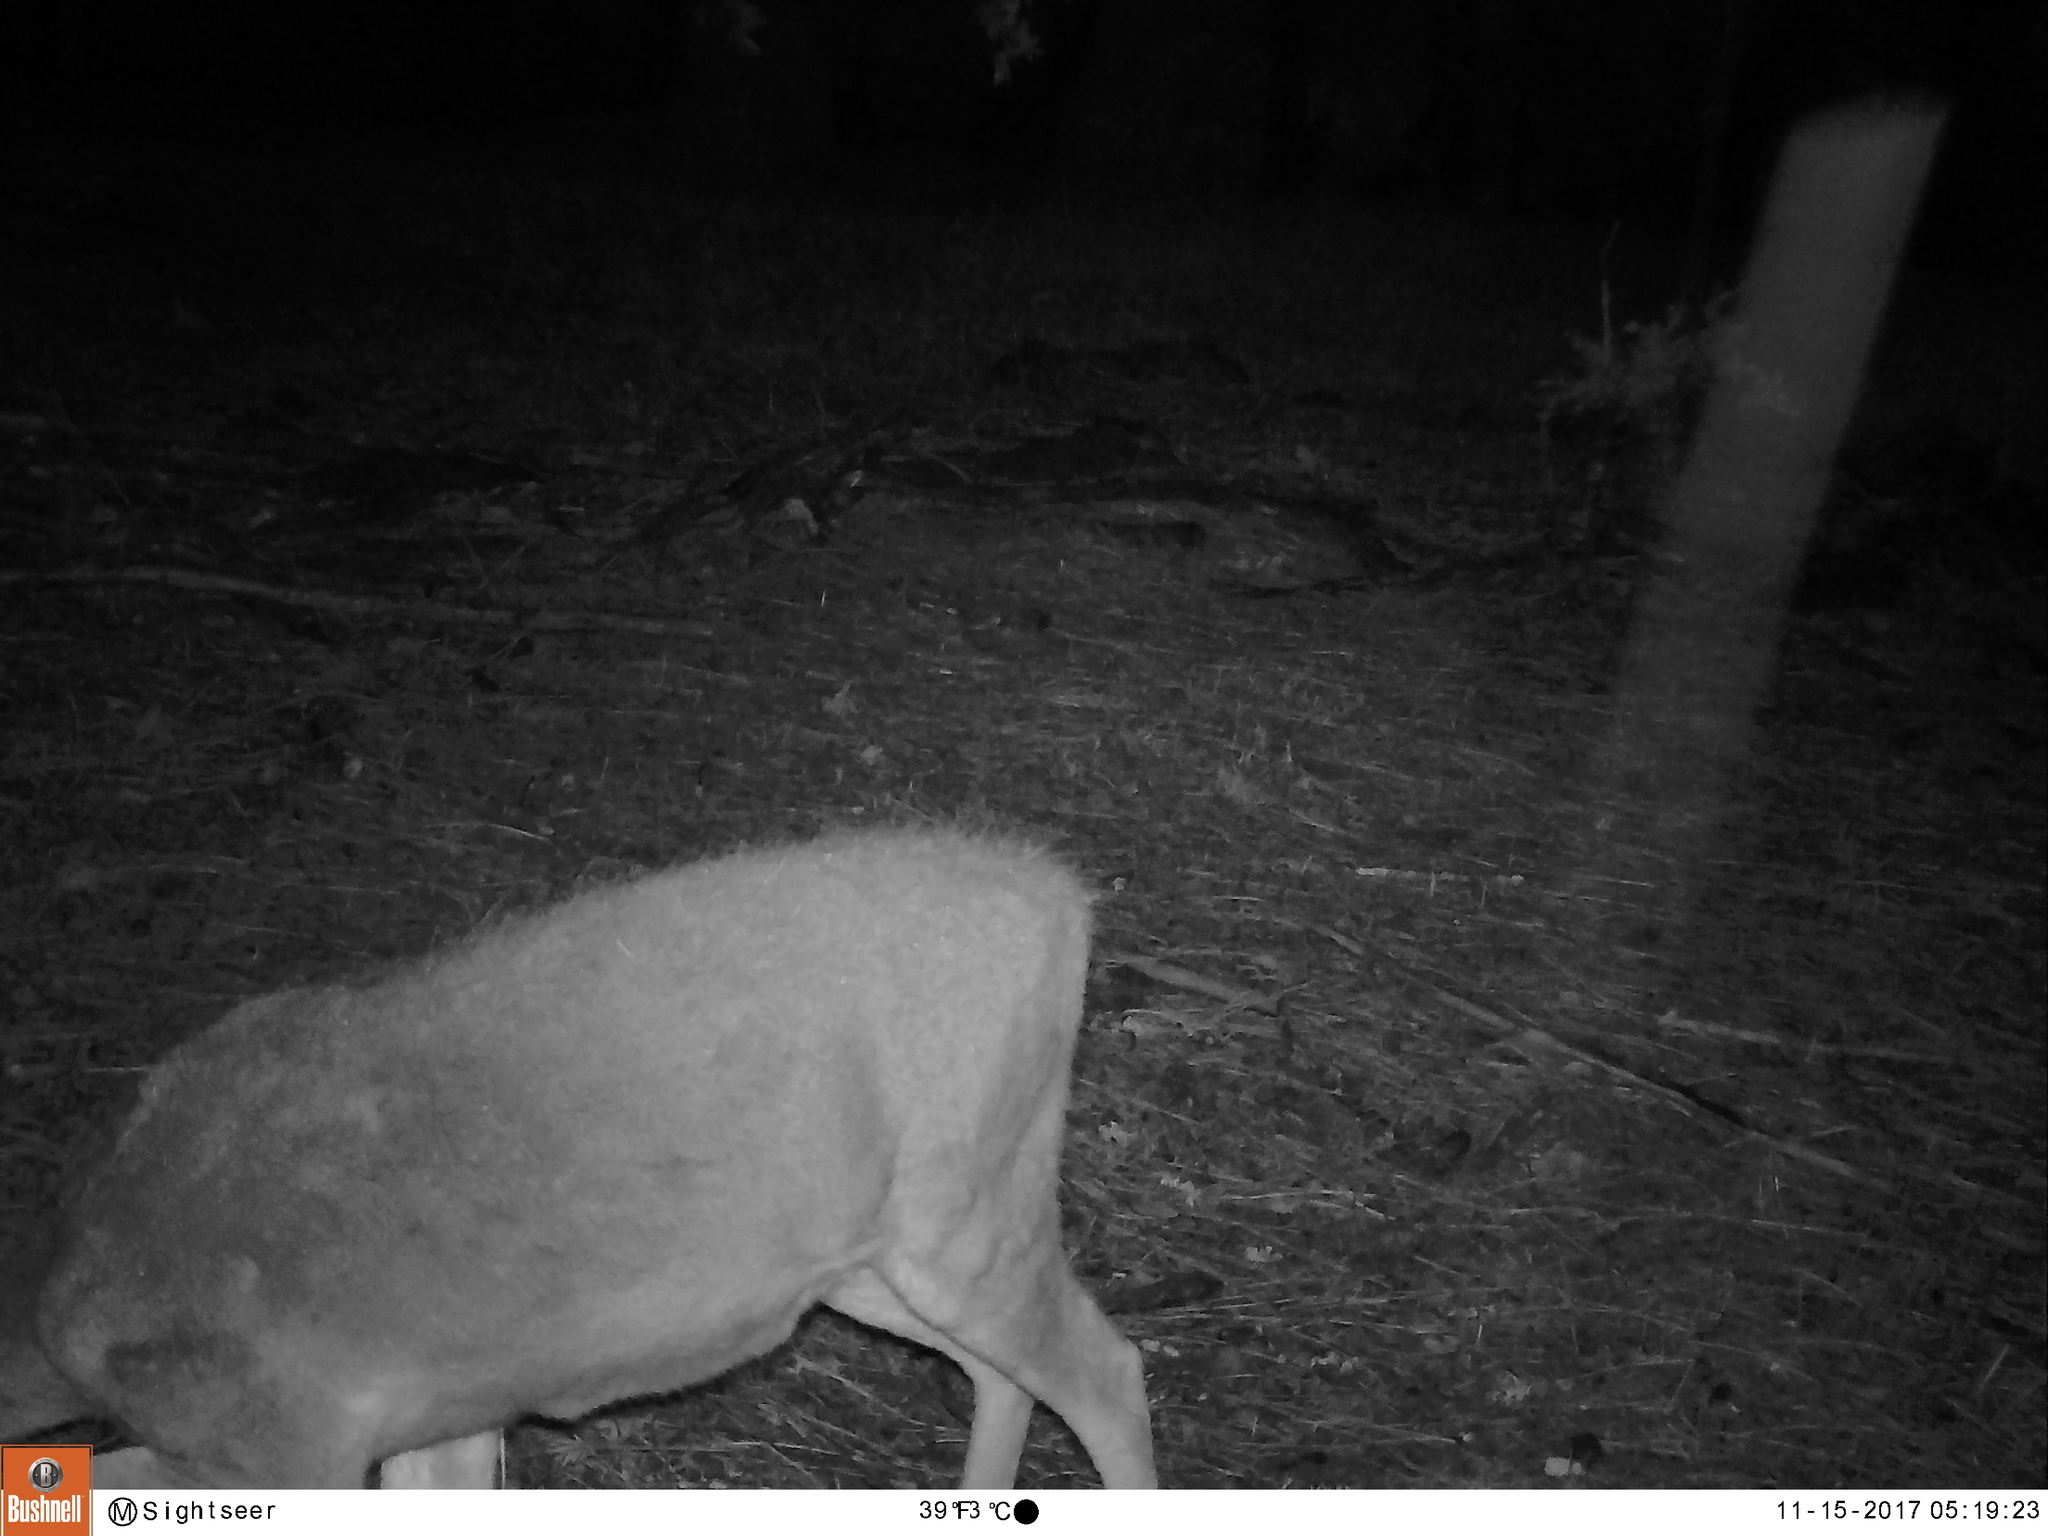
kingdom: Animalia
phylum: Chordata
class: Mammalia
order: Artiodactyla
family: Cervidae
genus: Odocoileus
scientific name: Odocoileus hemionus
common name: Mule deer
